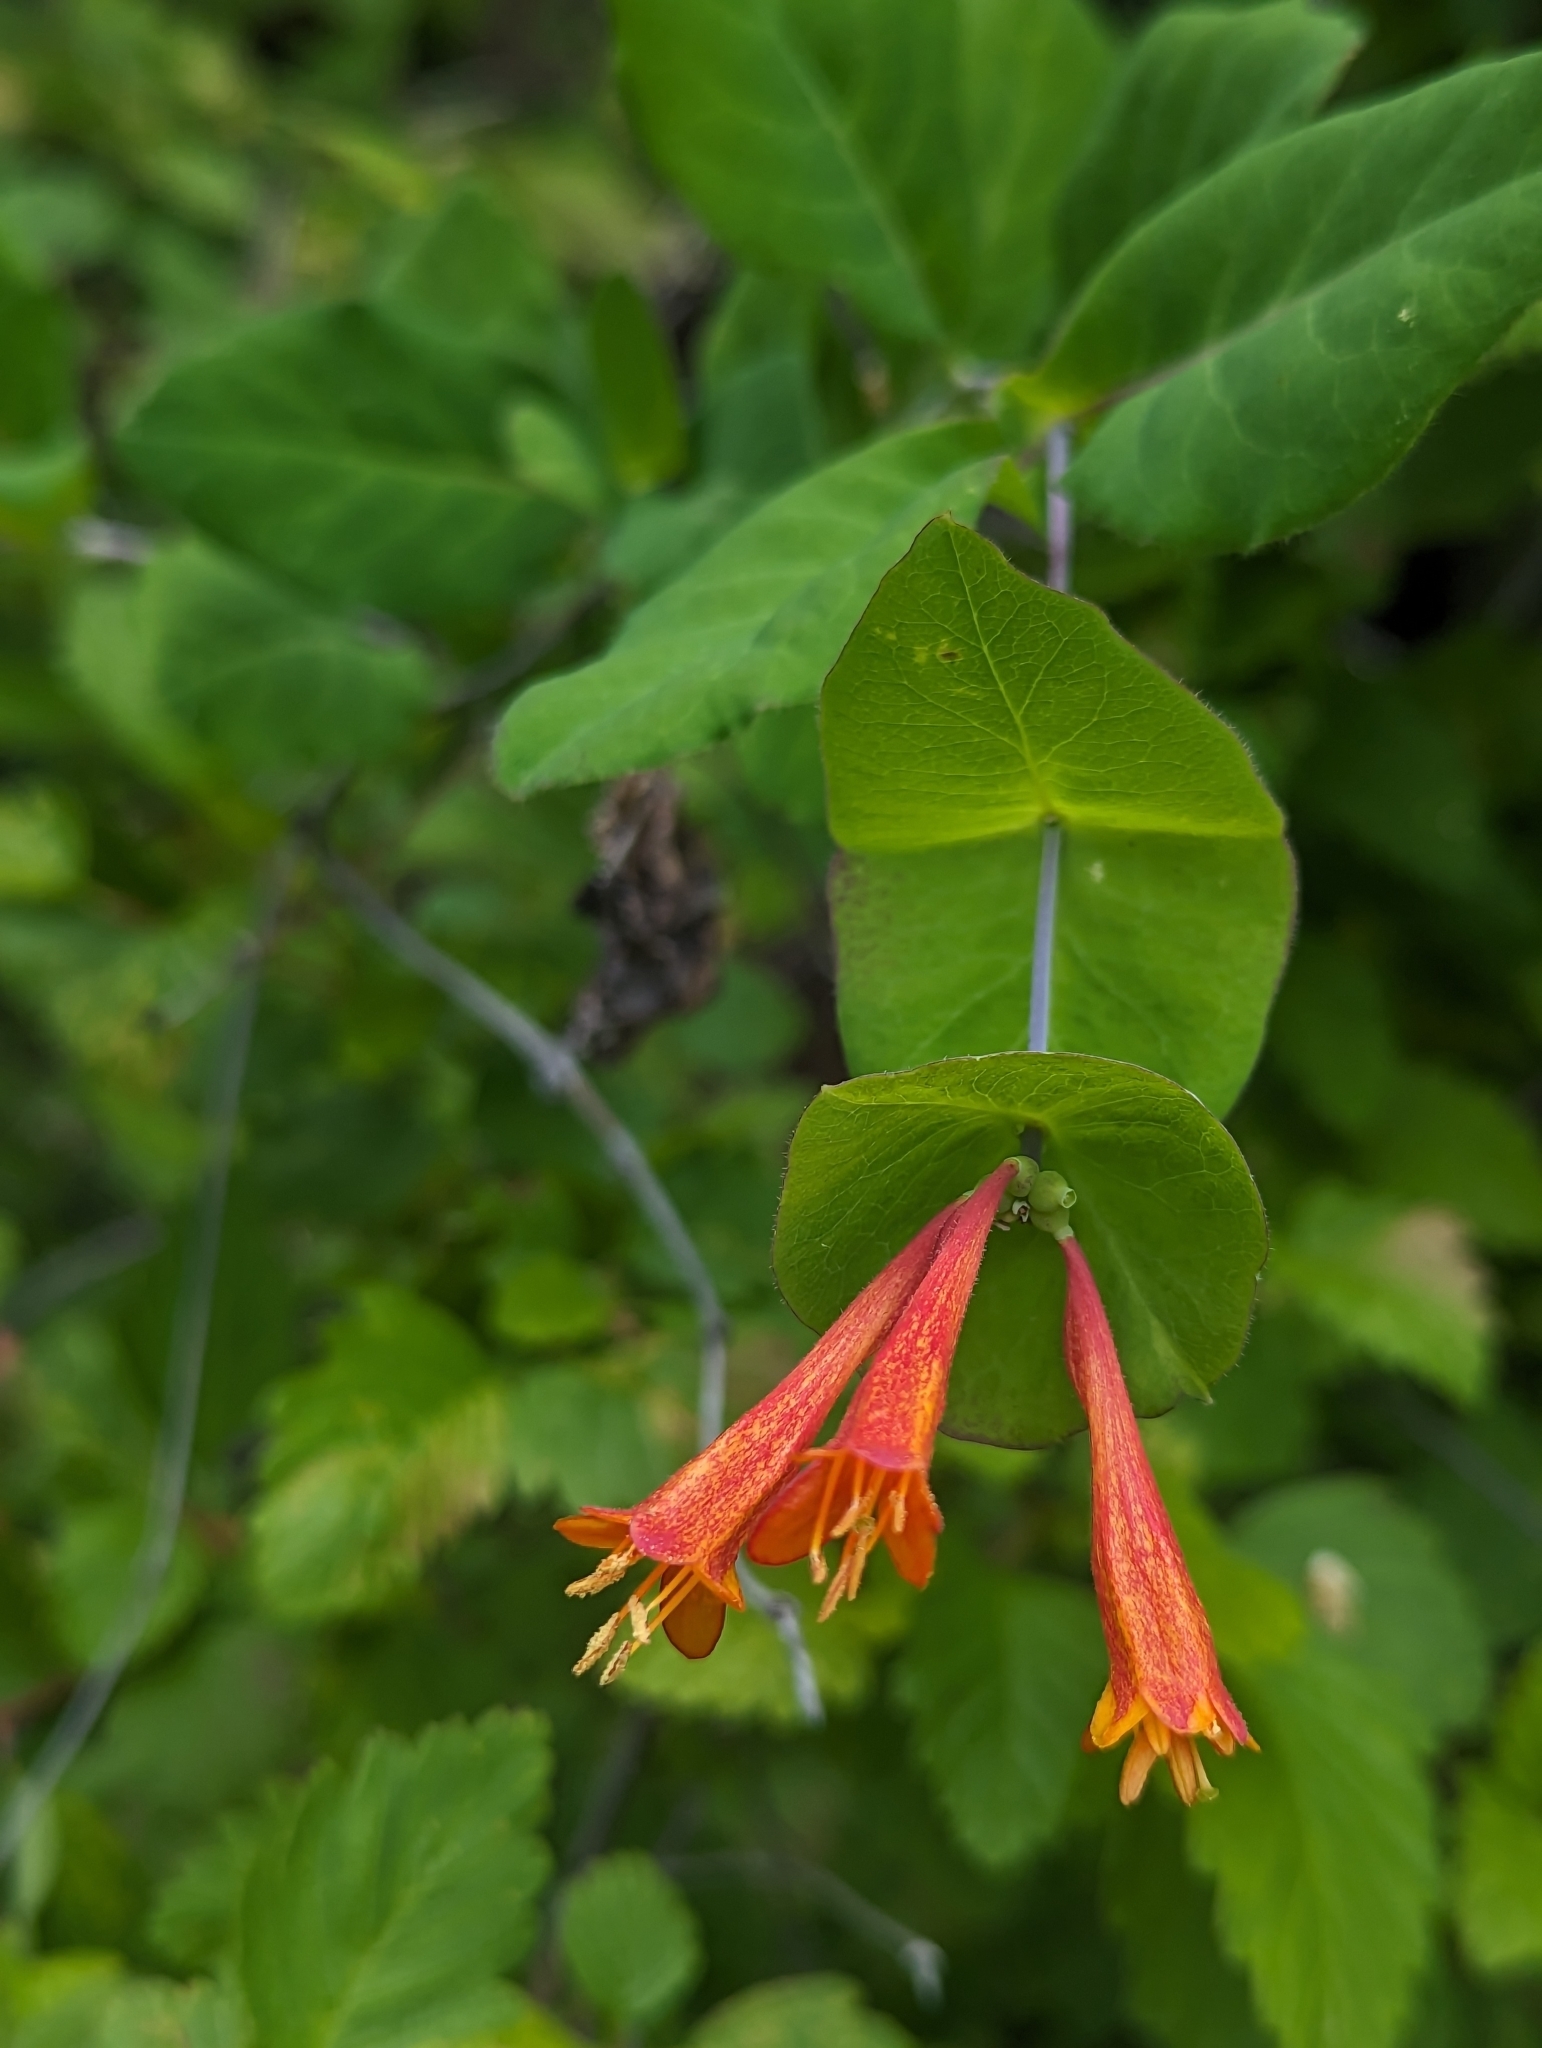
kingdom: Plantae
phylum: Tracheophyta
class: Magnoliopsida
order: Dipsacales
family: Caprifoliaceae
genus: Lonicera
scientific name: Lonicera ciliosa
